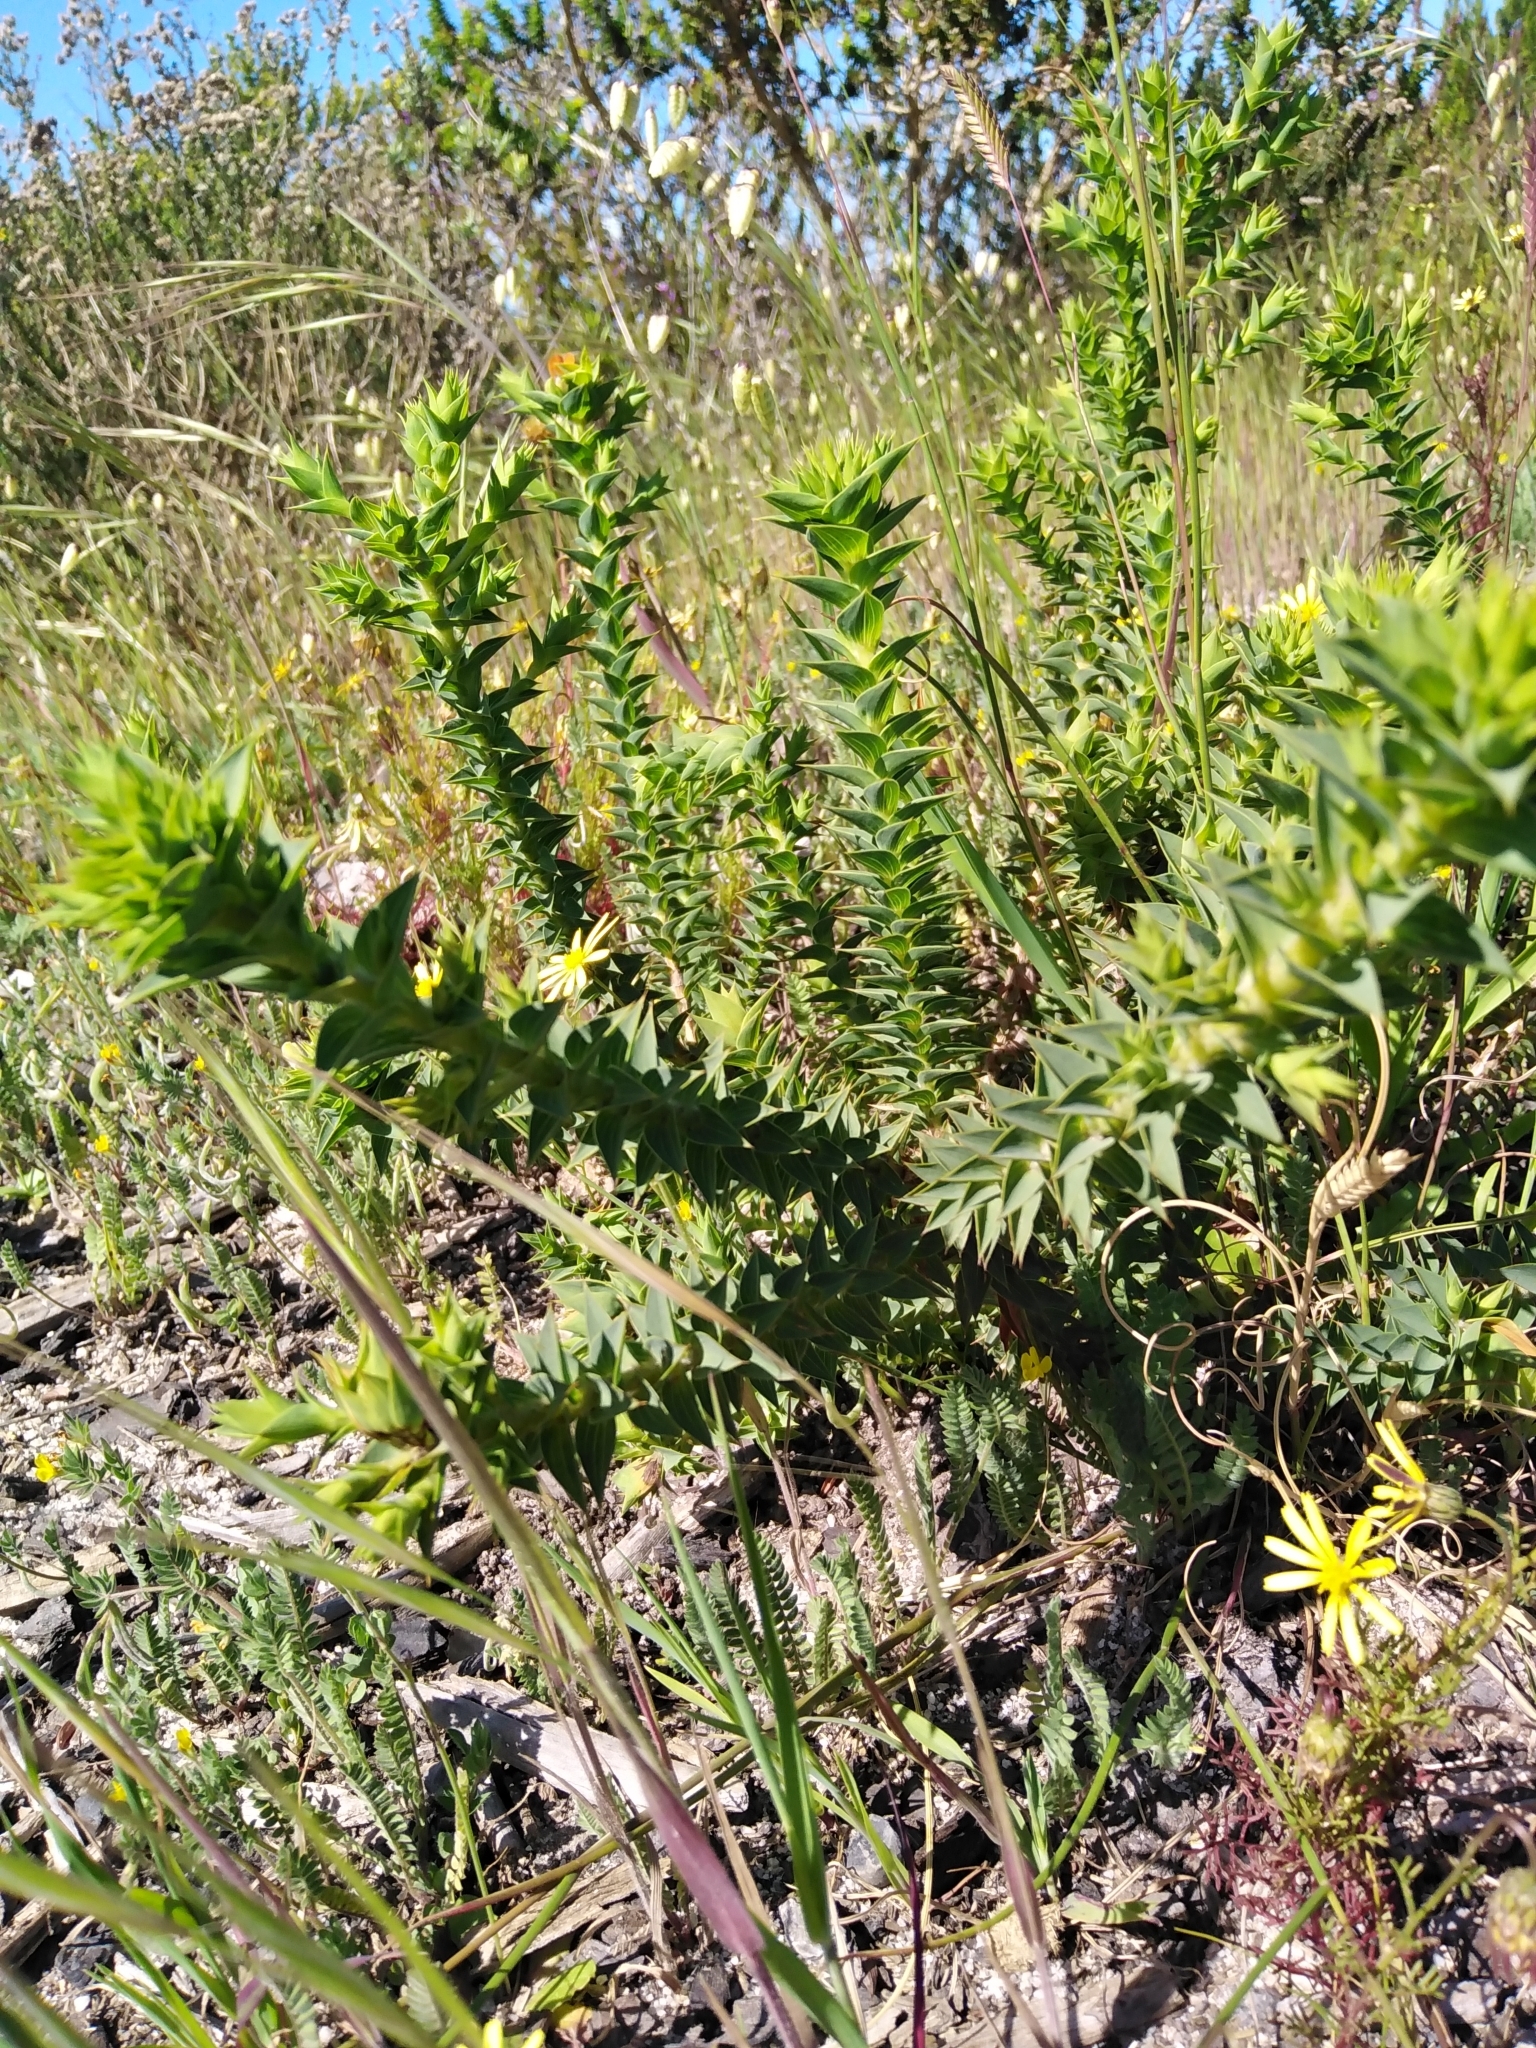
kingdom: Plantae
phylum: Tracheophyta
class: Magnoliopsida
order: Fabales
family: Fabaceae
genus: Aspalathus
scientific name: Aspalathus cordata
